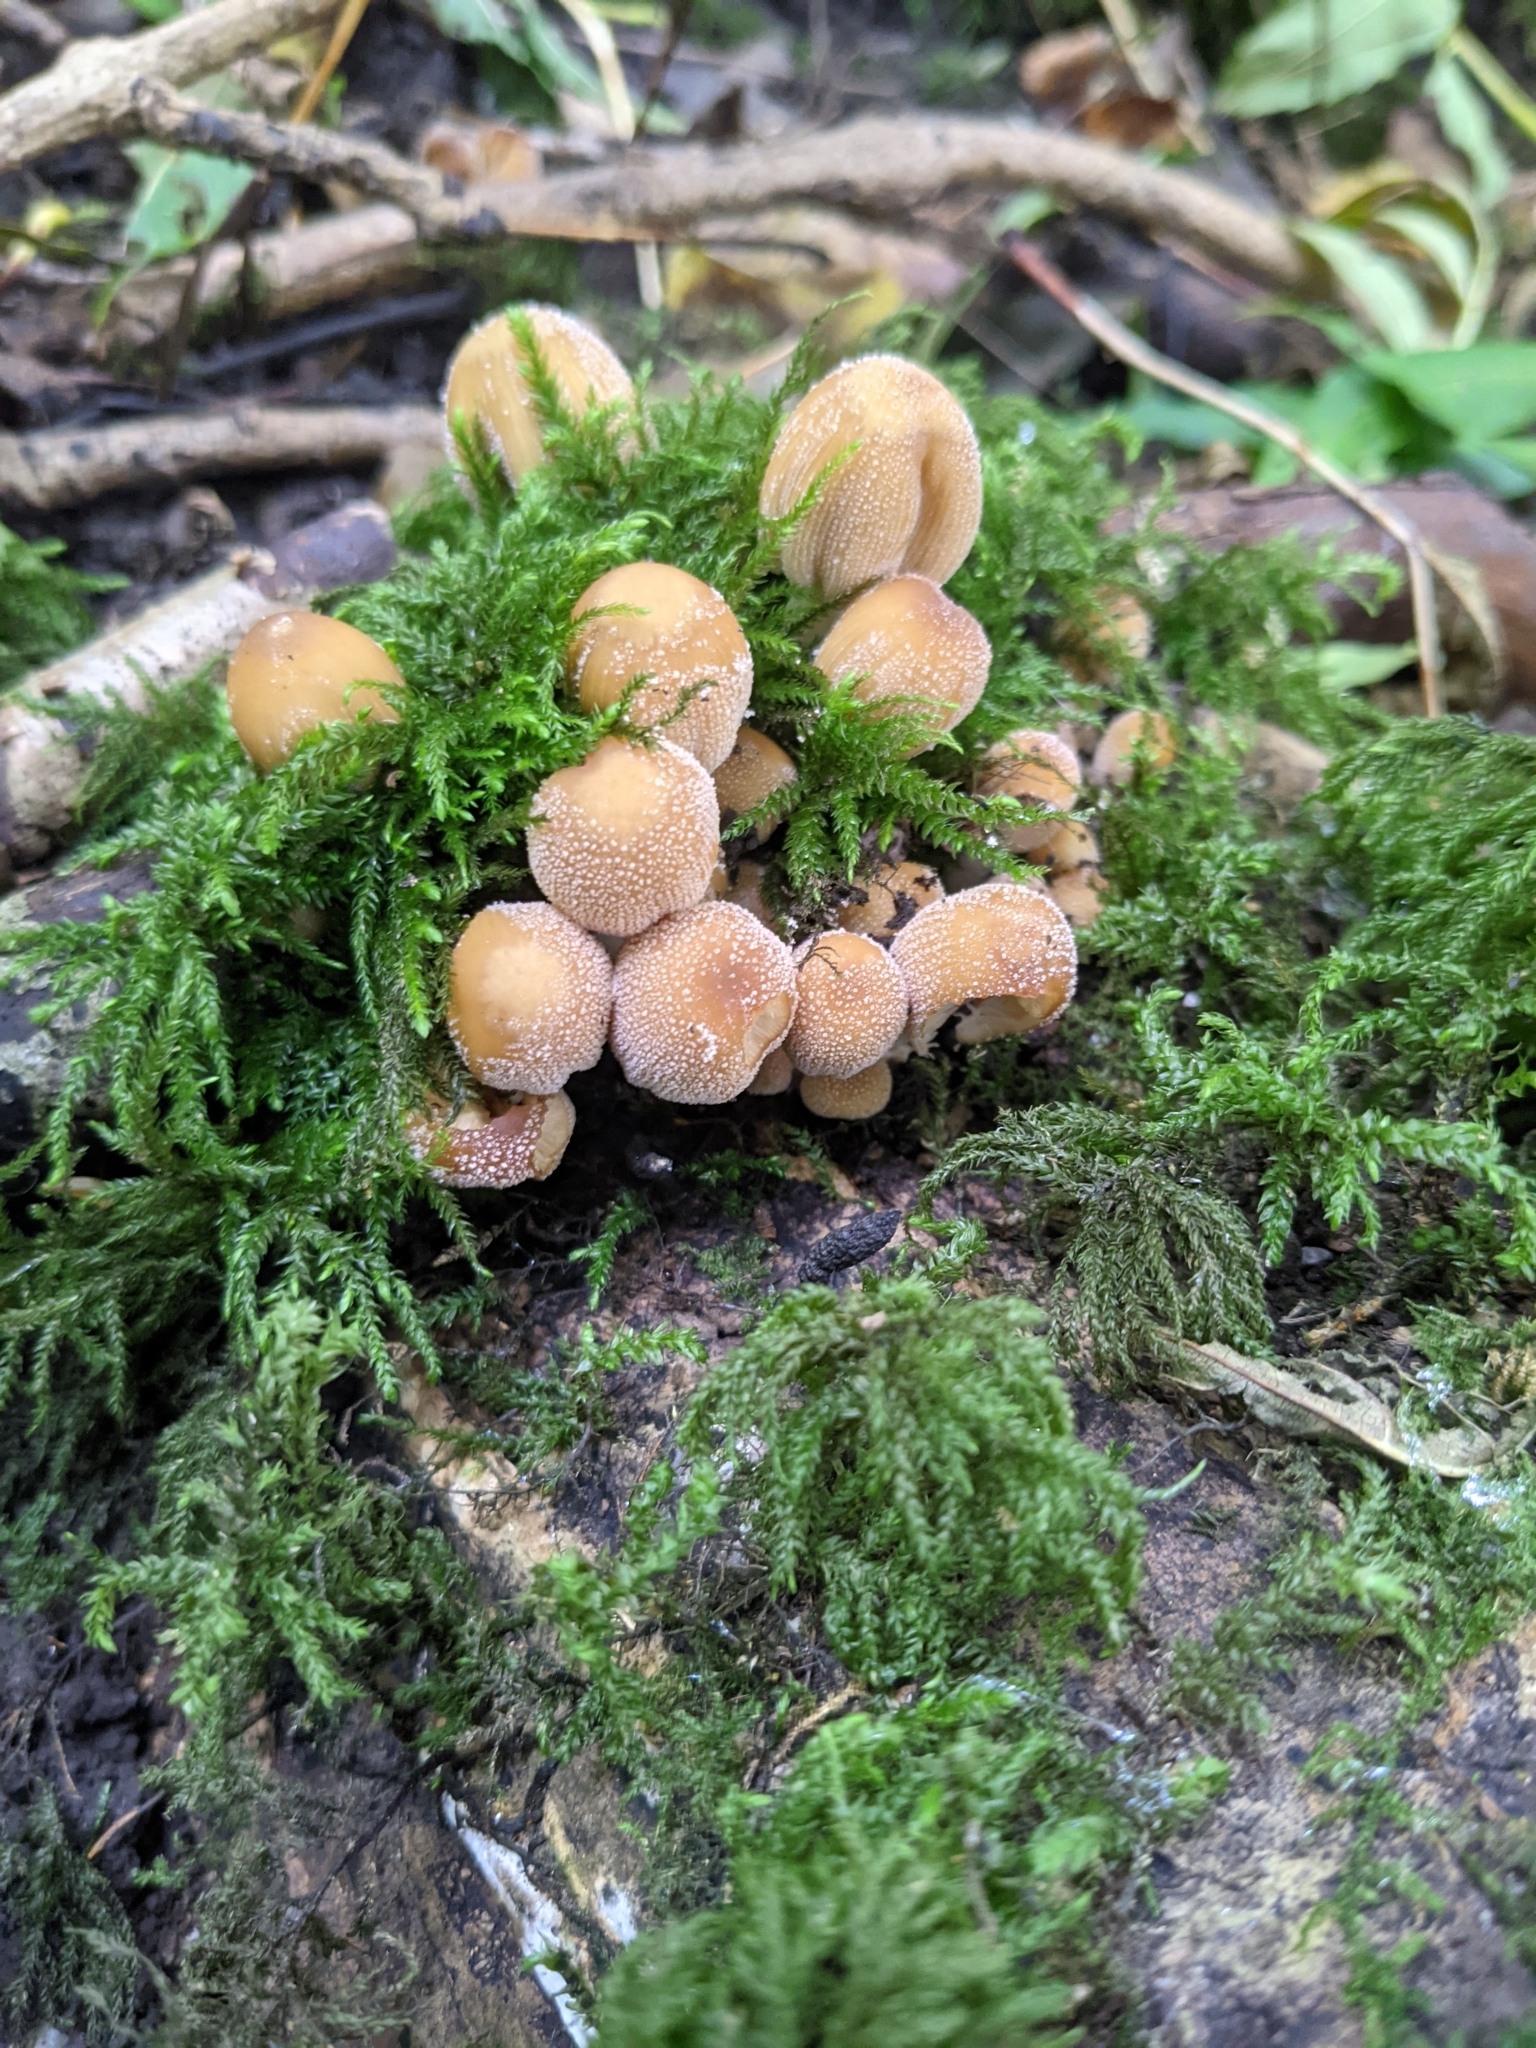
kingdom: Fungi
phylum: Basidiomycota
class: Agaricomycetes
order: Agaricales
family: Psathyrellaceae
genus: Coprinellus
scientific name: Coprinellus micaceus
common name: Glistening ink-cap
